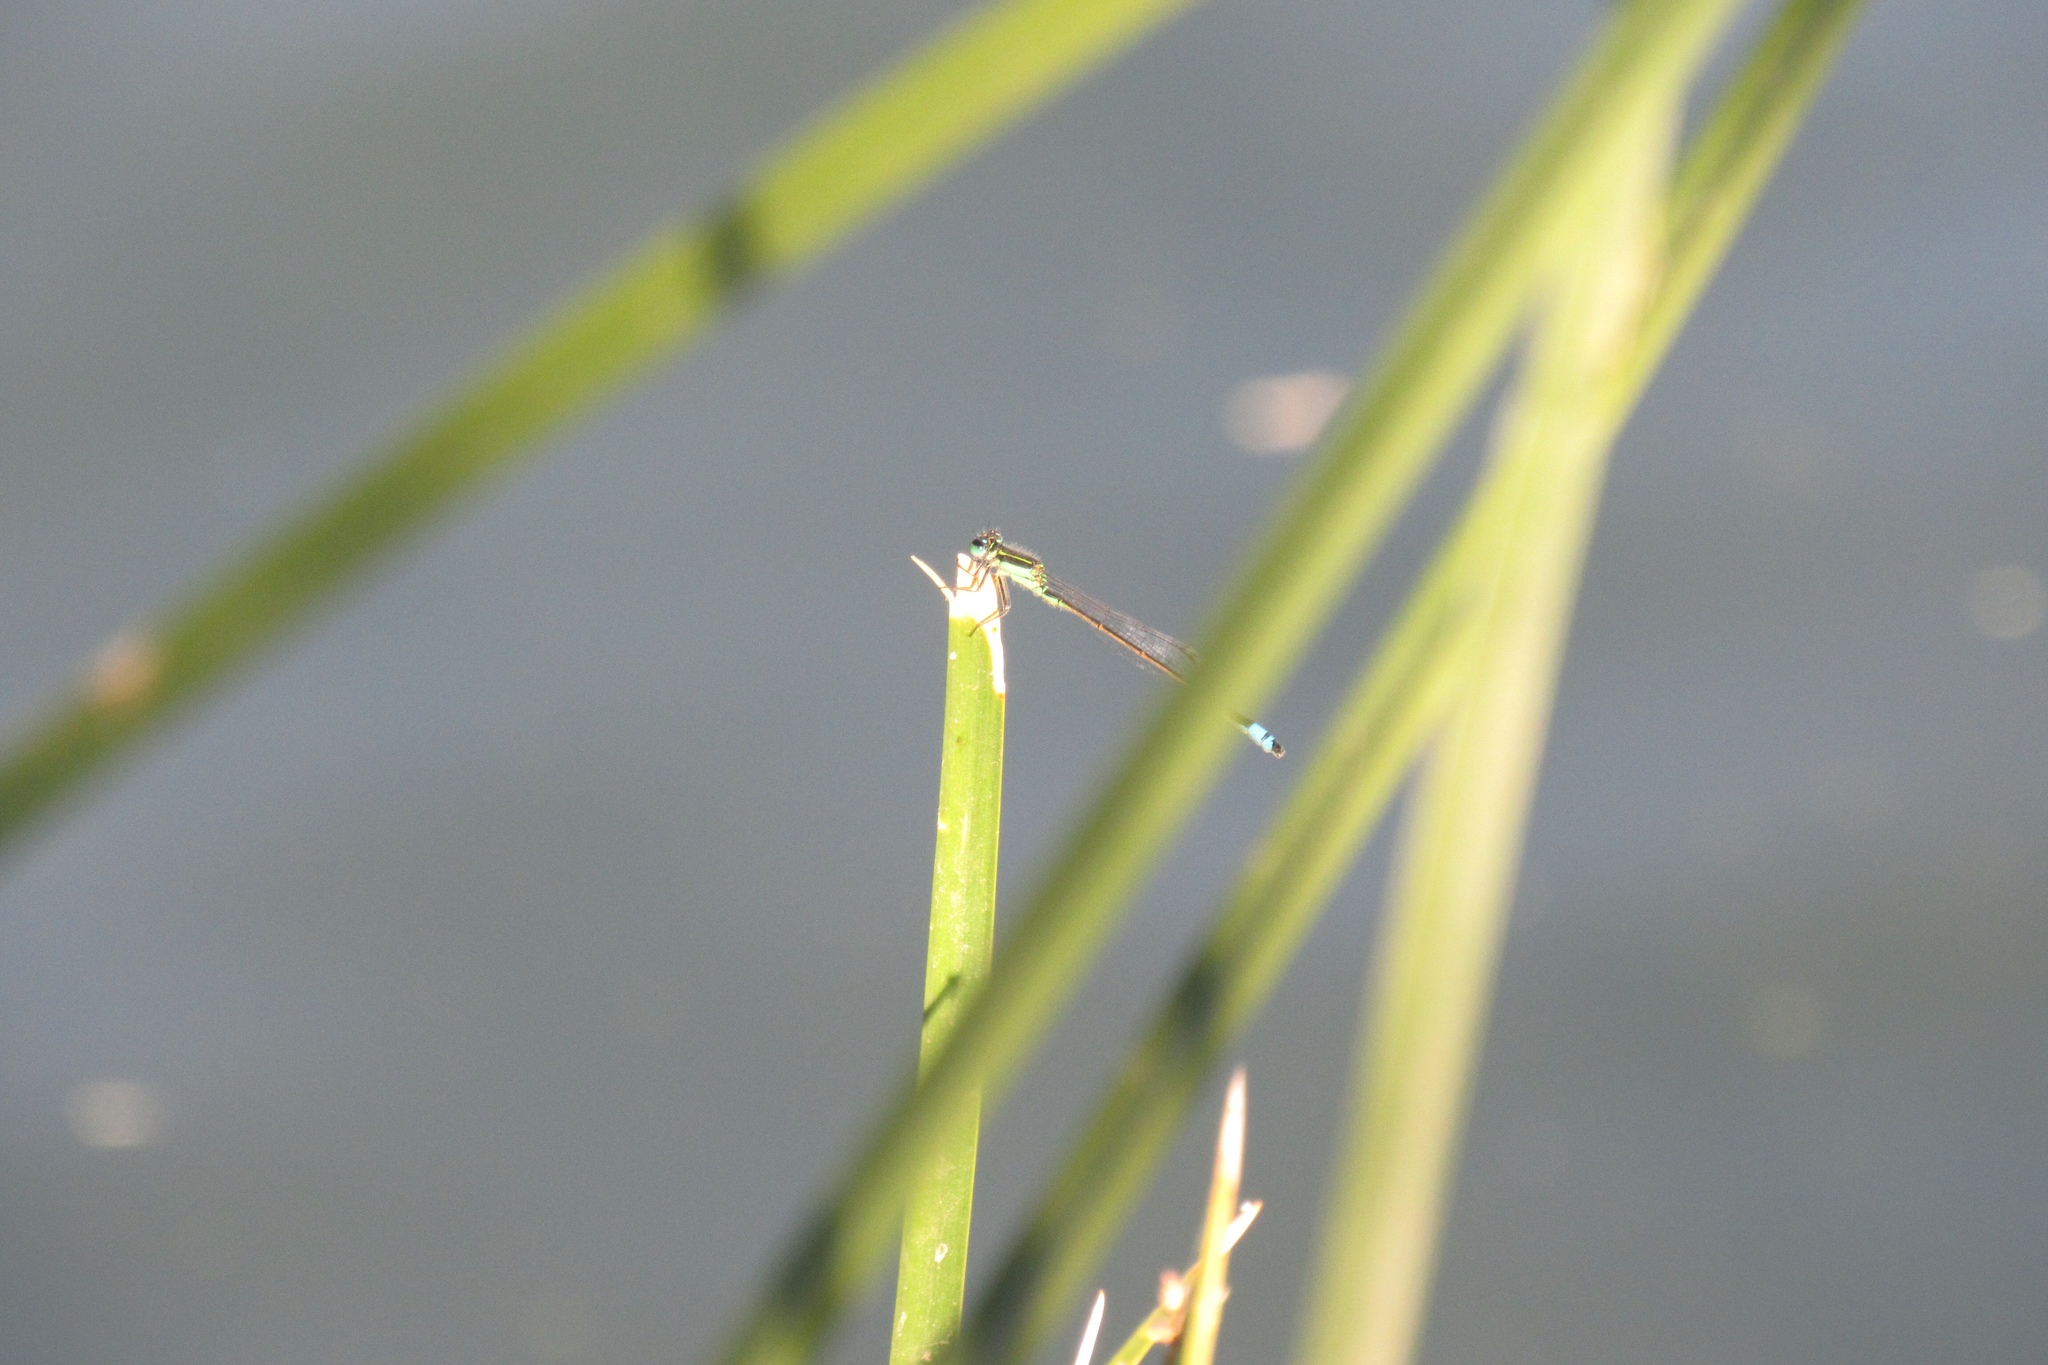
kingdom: Animalia
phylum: Arthropoda
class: Insecta
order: Odonata
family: Coenagrionidae
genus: Ischnura
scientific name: Ischnura ramburii
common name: Rambur's forktail
